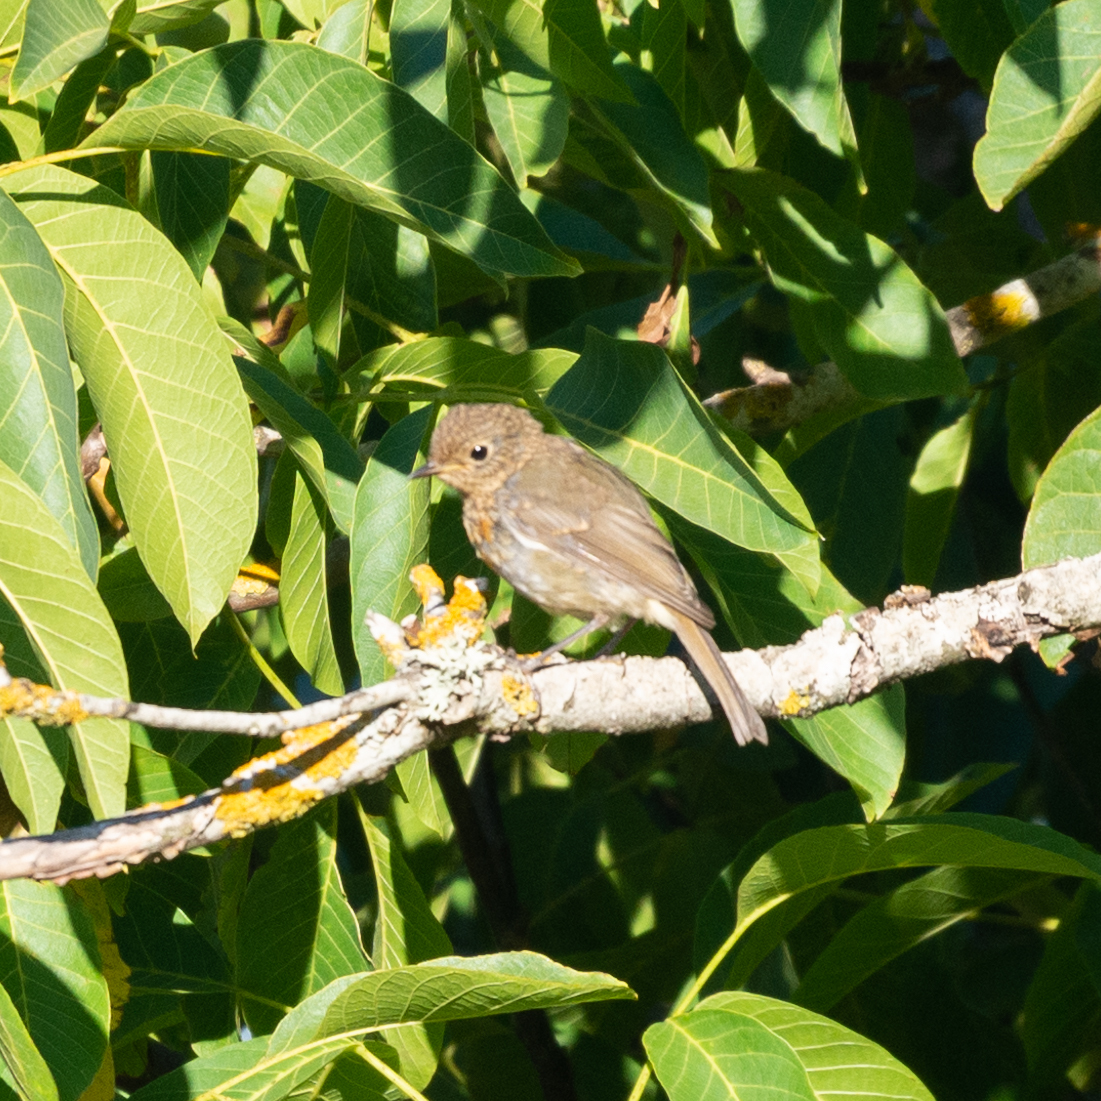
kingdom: Animalia
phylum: Chordata
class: Aves
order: Passeriformes
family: Muscicapidae
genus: Erithacus
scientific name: Erithacus rubecula
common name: European robin
